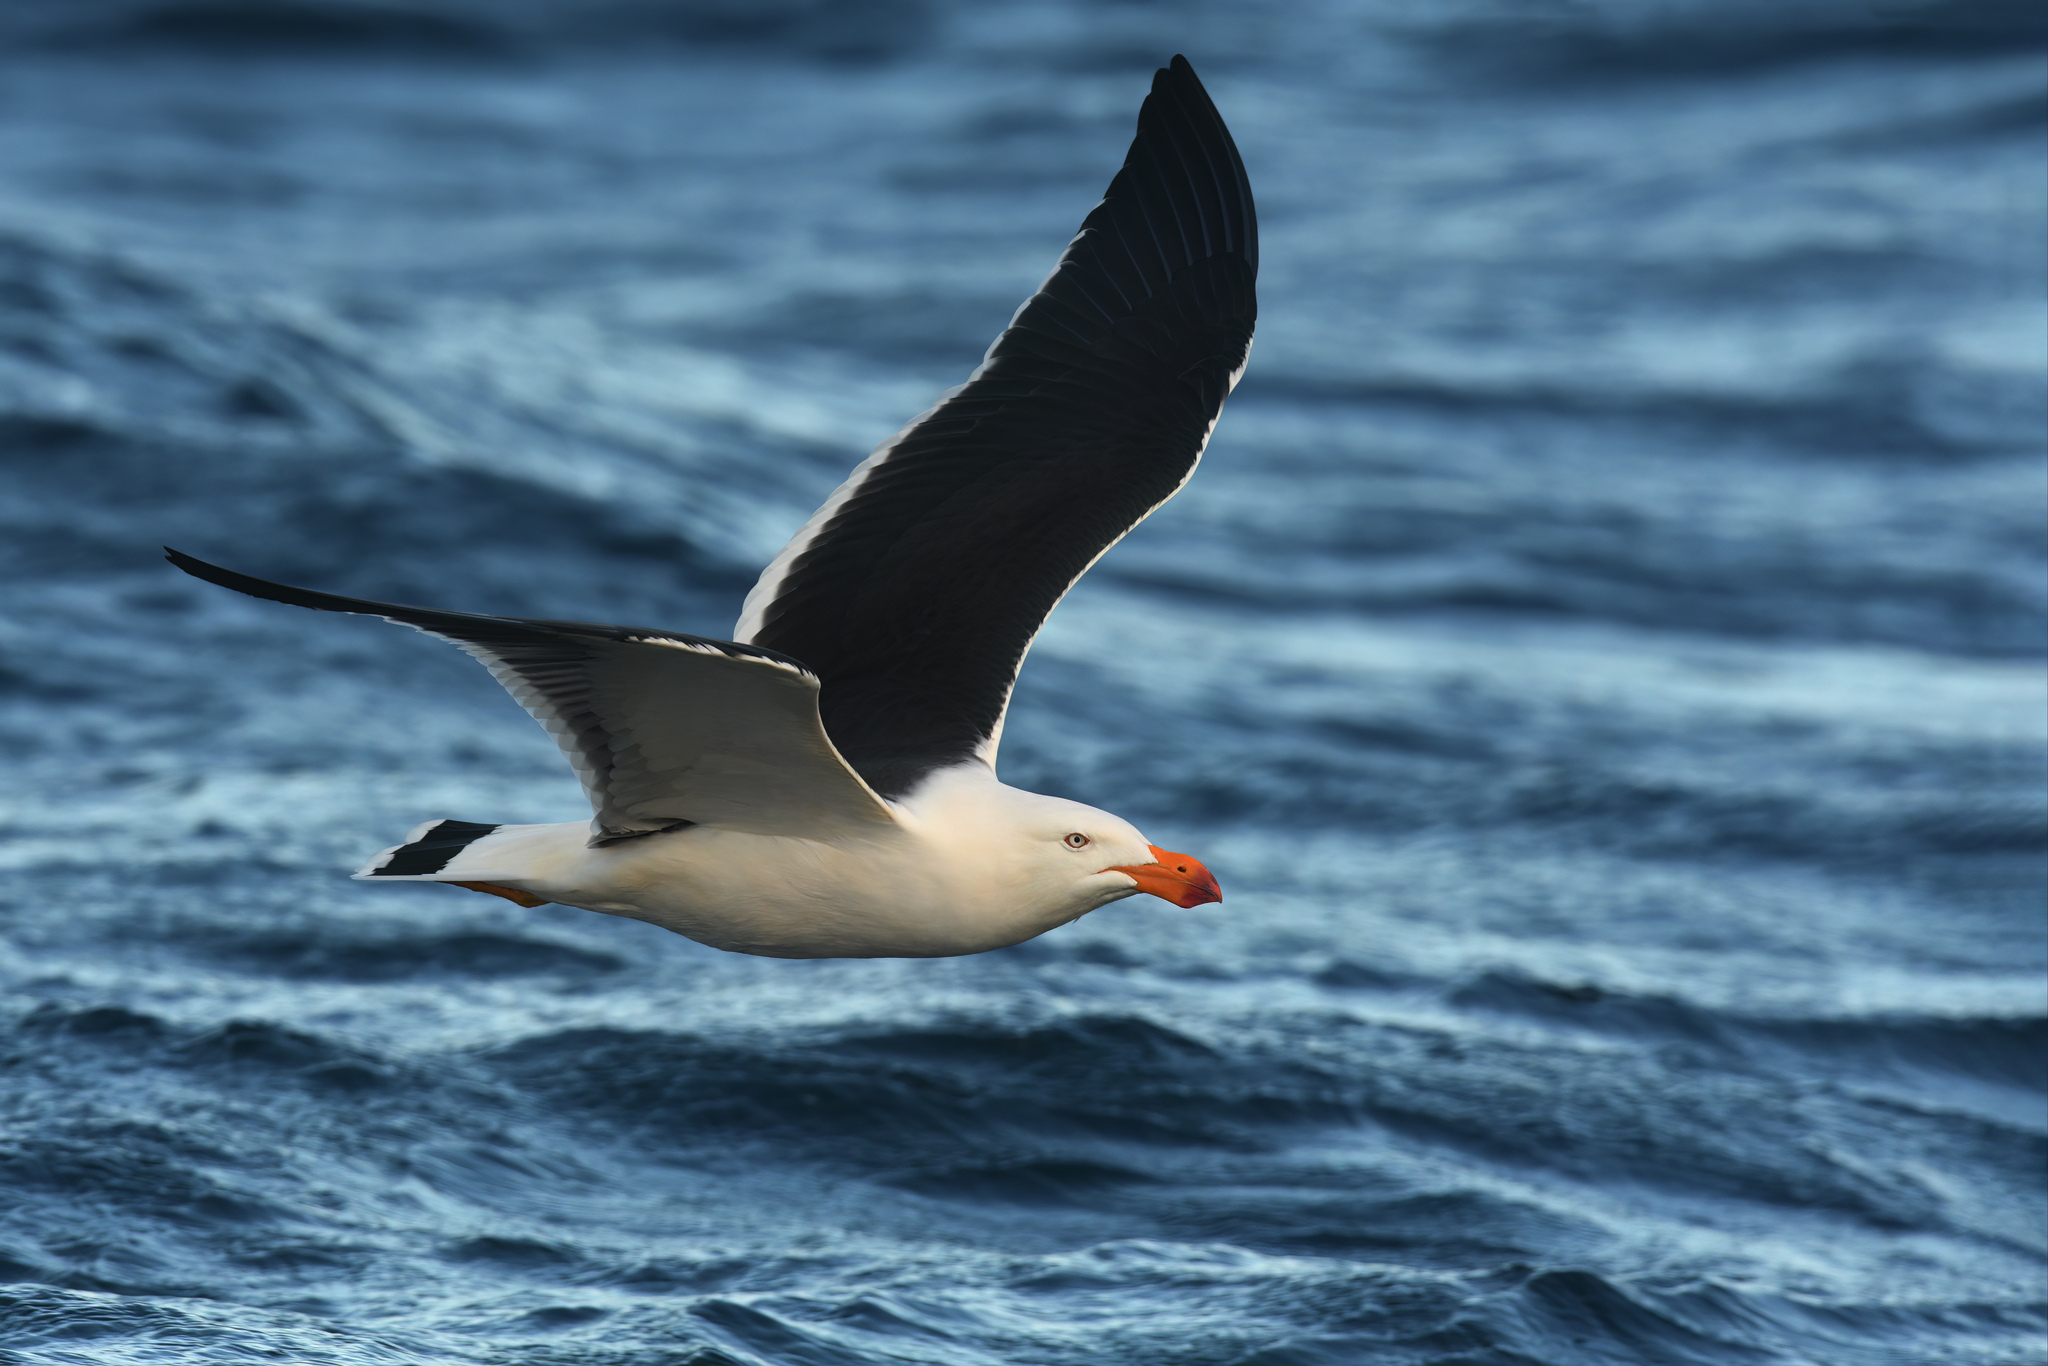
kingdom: Animalia
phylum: Chordata
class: Aves
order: Charadriiformes
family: Laridae
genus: Larus
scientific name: Larus pacificus
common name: Pacific gull
